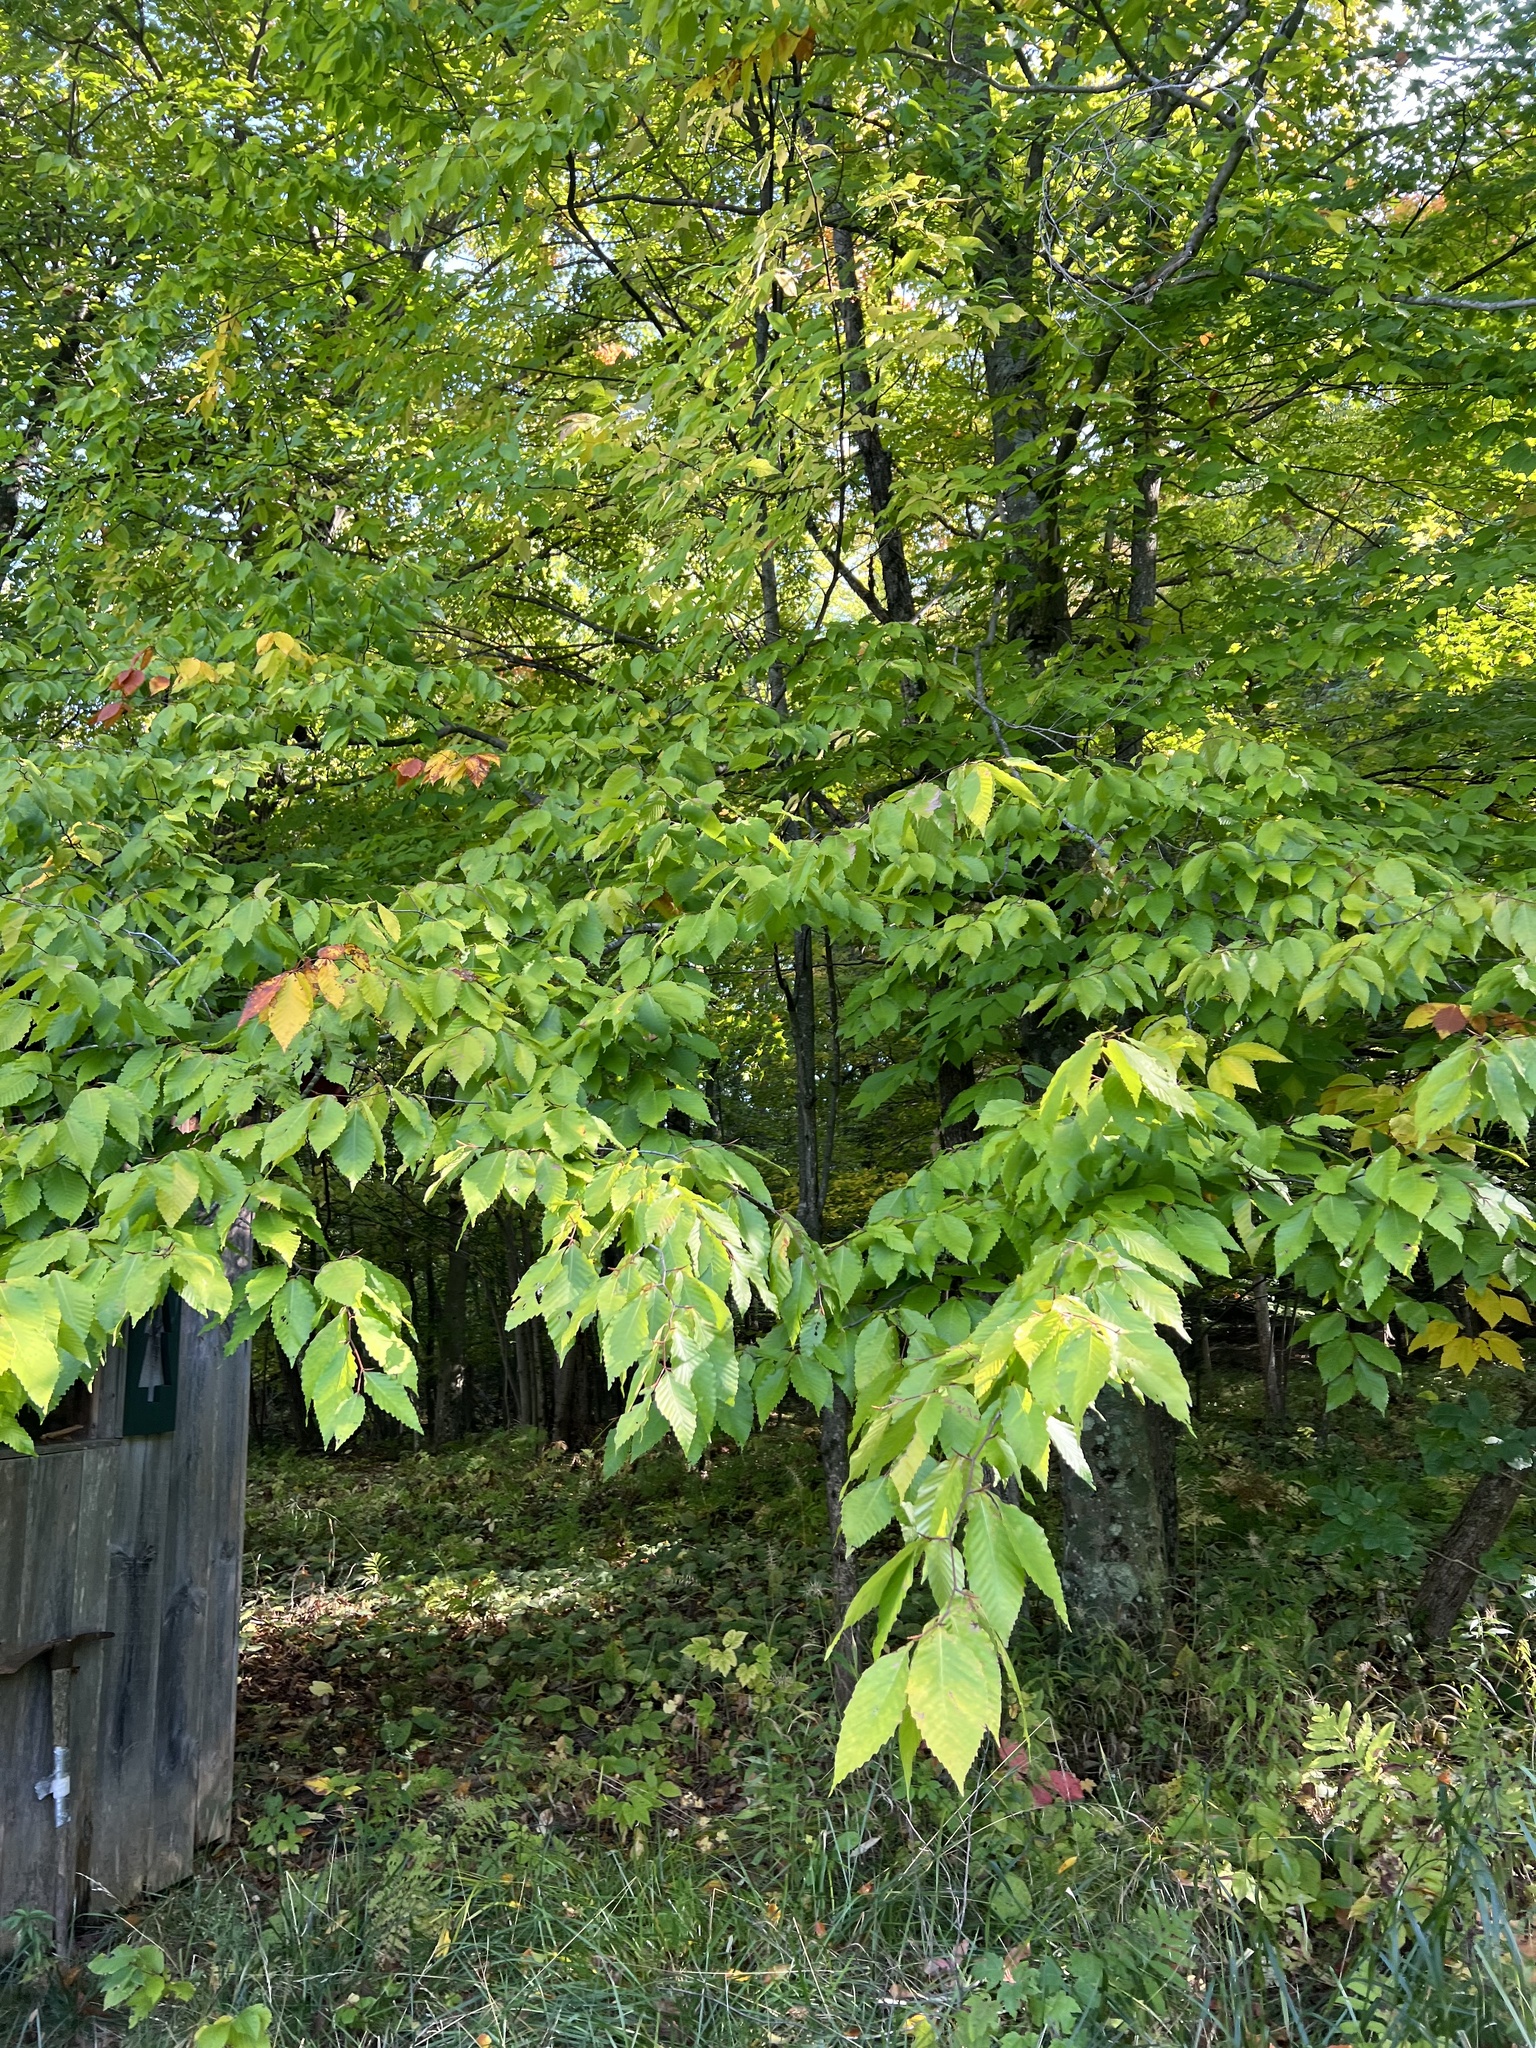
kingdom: Plantae
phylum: Tracheophyta
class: Magnoliopsida
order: Fagales
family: Fagaceae
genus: Fagus
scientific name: Fagus grandifolia
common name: American beech
